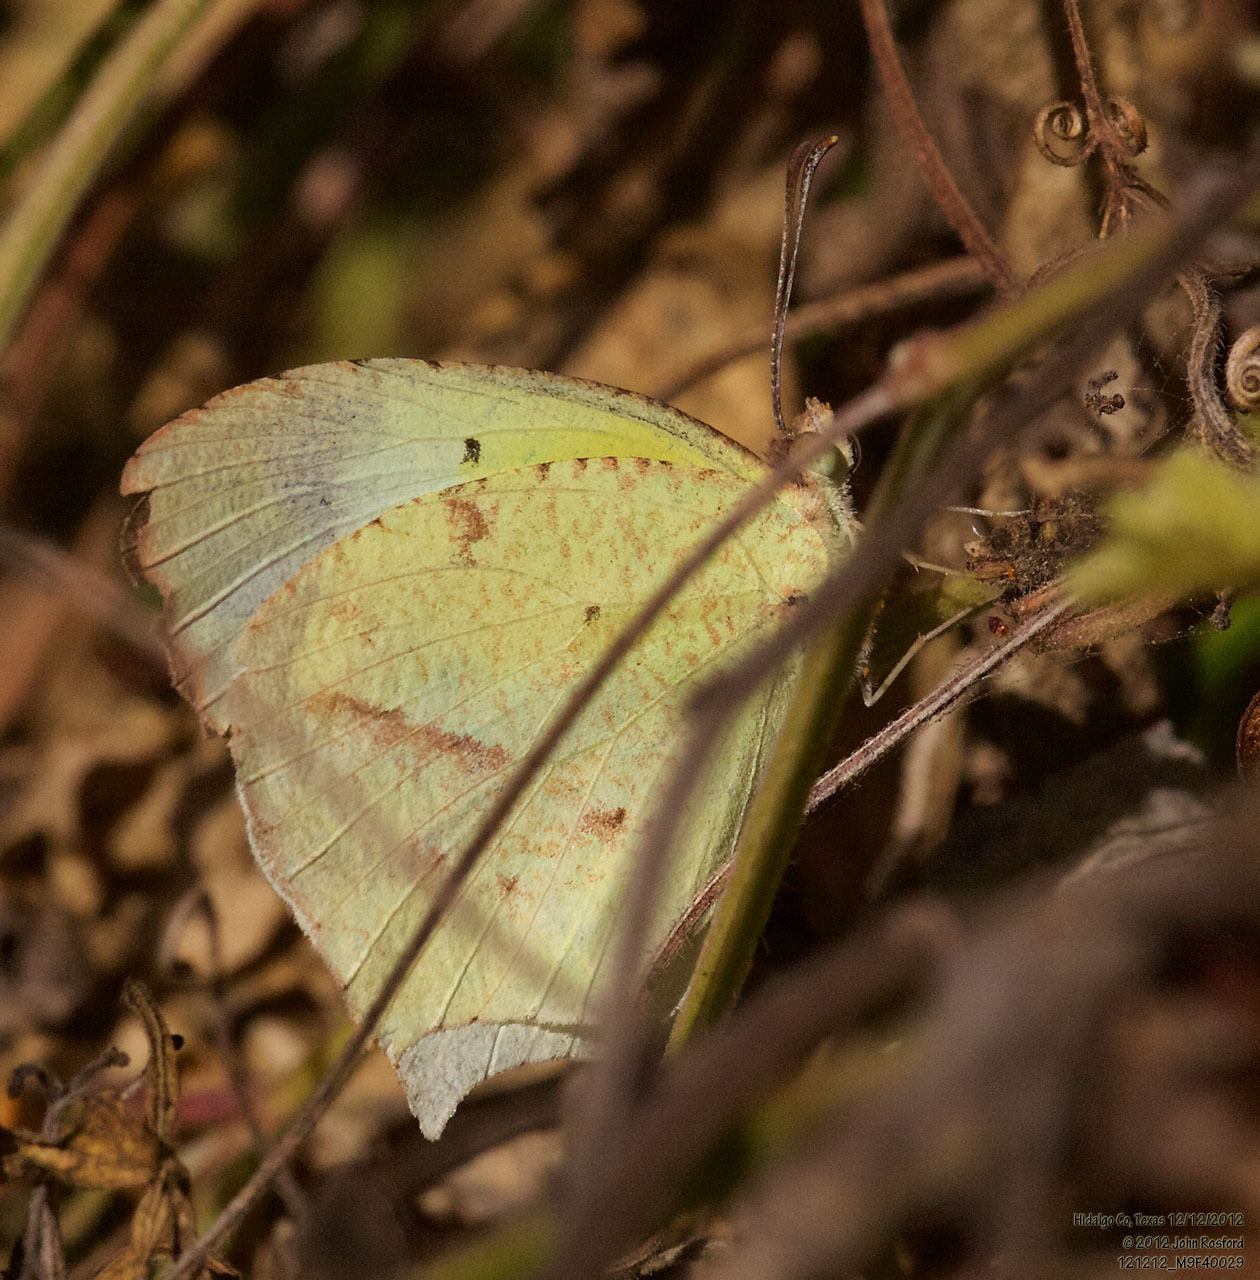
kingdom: Animalia
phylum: Arthropoda
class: Insecta
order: Lepidoptera
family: Pieridae
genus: Abaeis
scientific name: Abaeis mexicana
